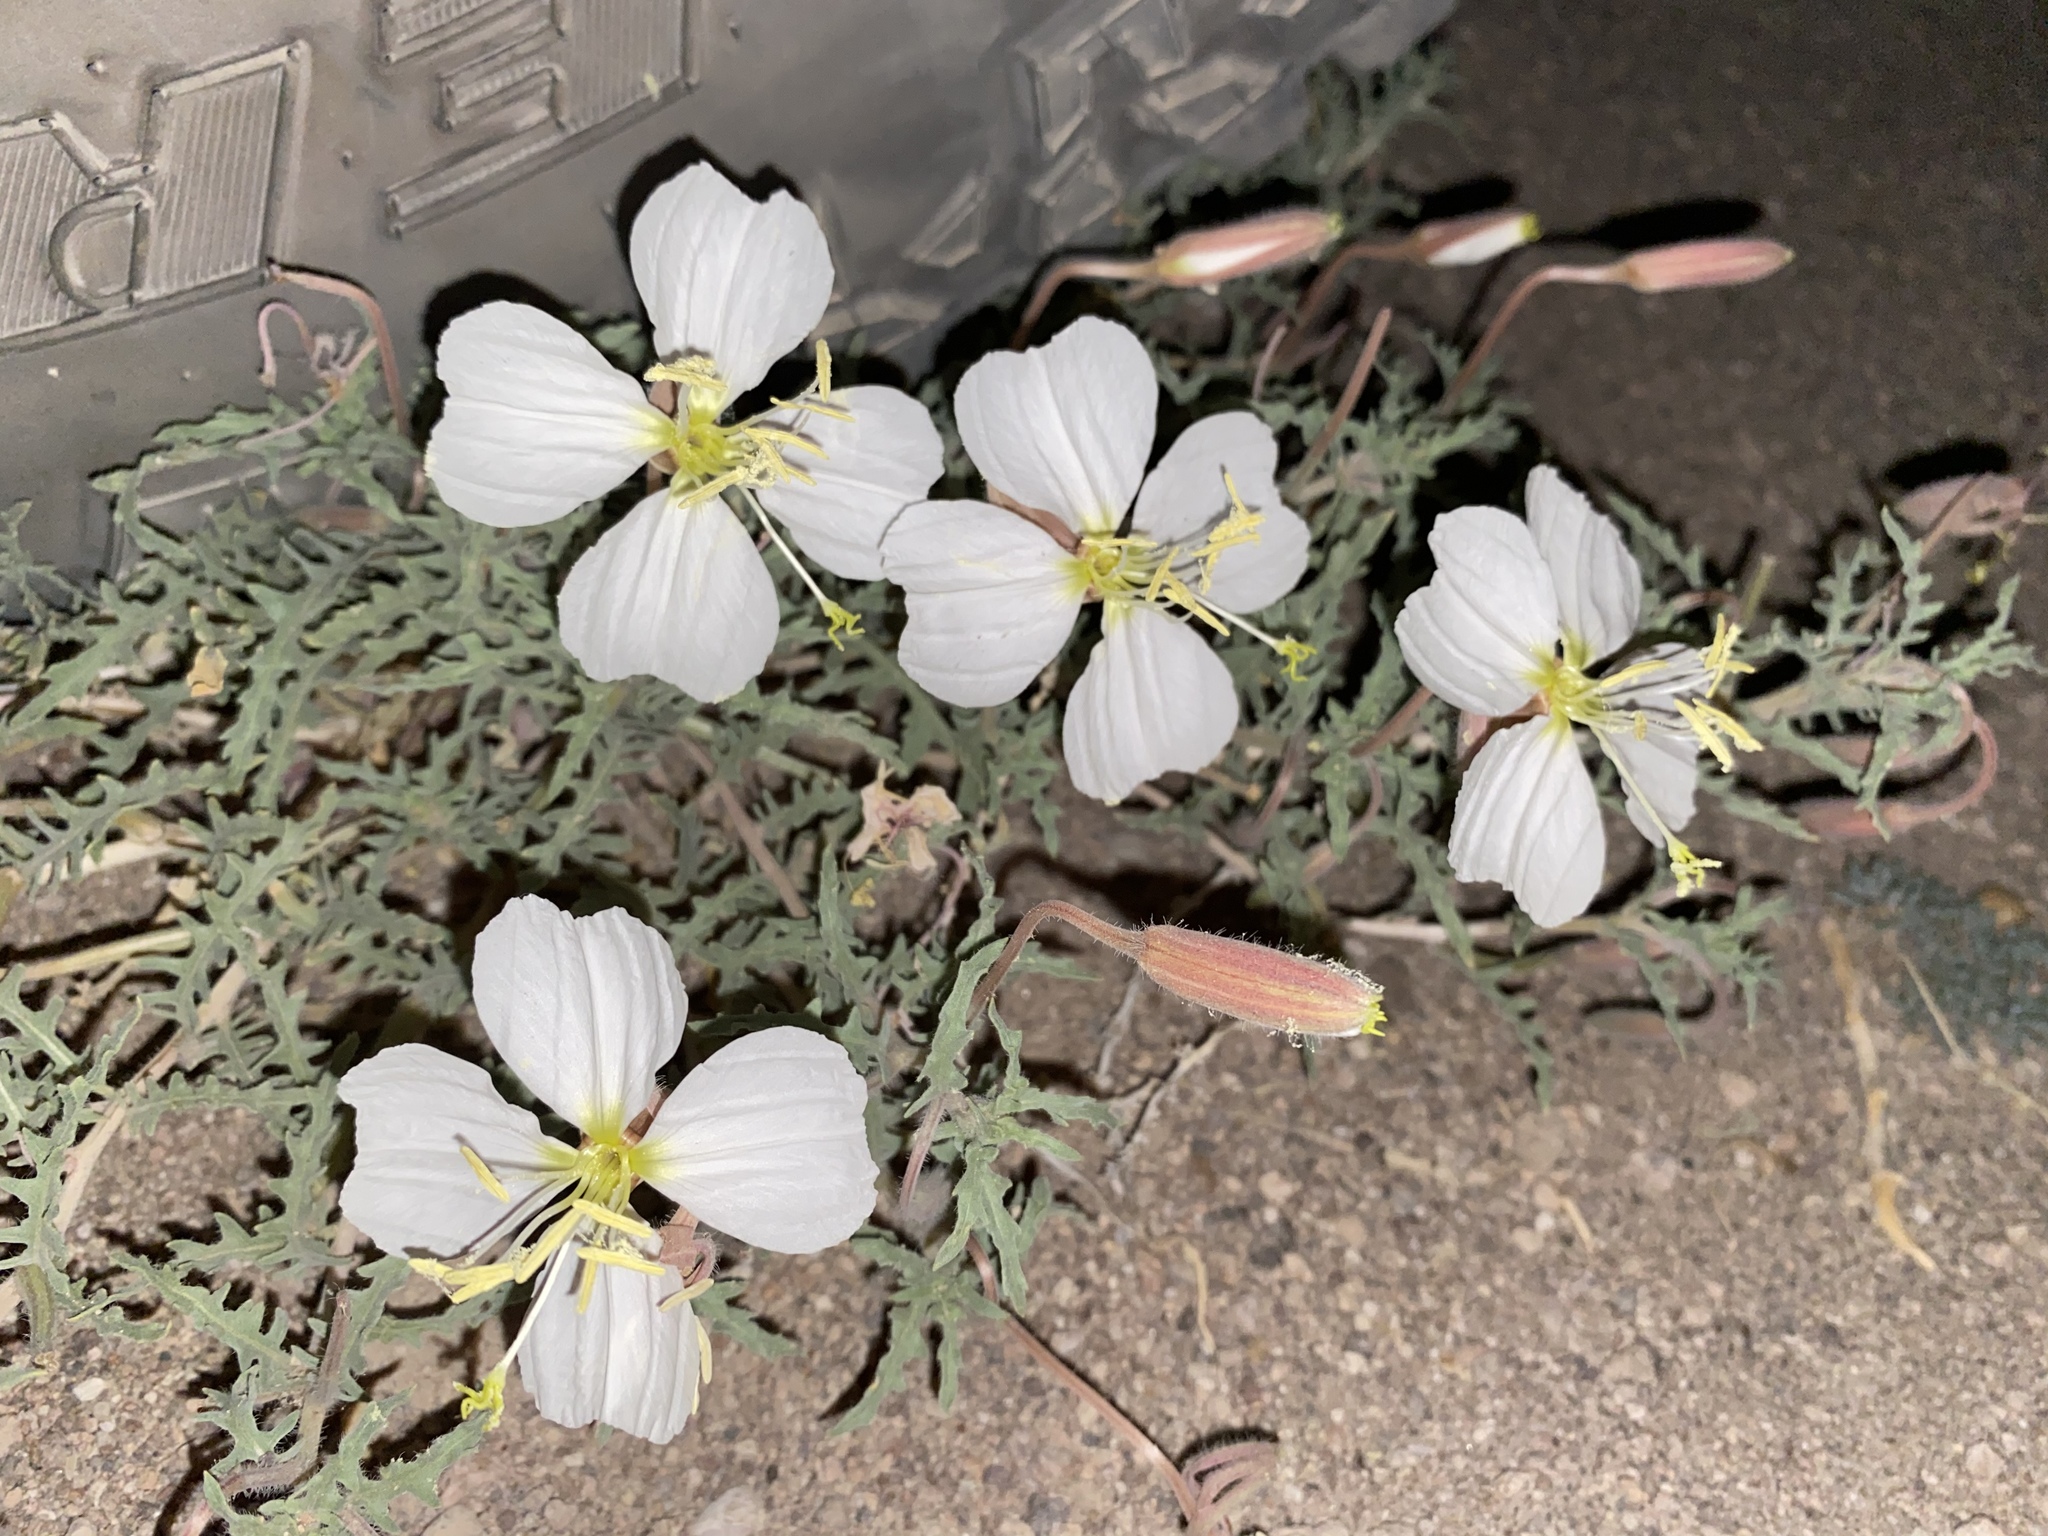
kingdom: Plantae
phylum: Tracheophyta
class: Magnoliopsida
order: Myrtales
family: Onagraceae
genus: Oenothera
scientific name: Oenothera californica
